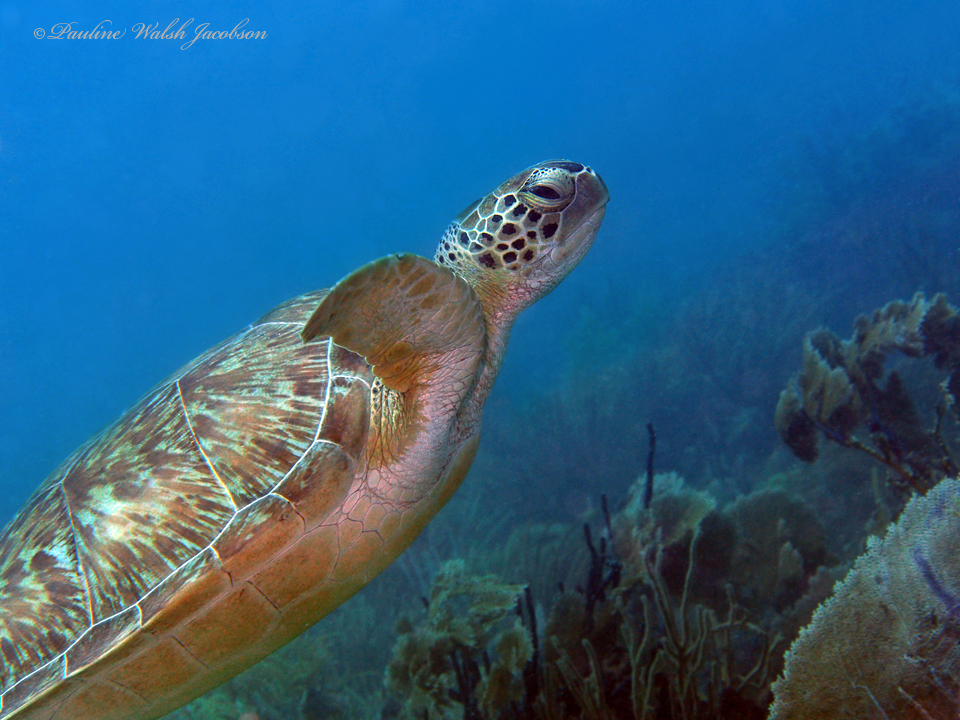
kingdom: Animalia
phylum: Chordata
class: Testudines
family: Cheloniidae
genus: Chelonia
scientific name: Chelonia mydas
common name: Green turtle
